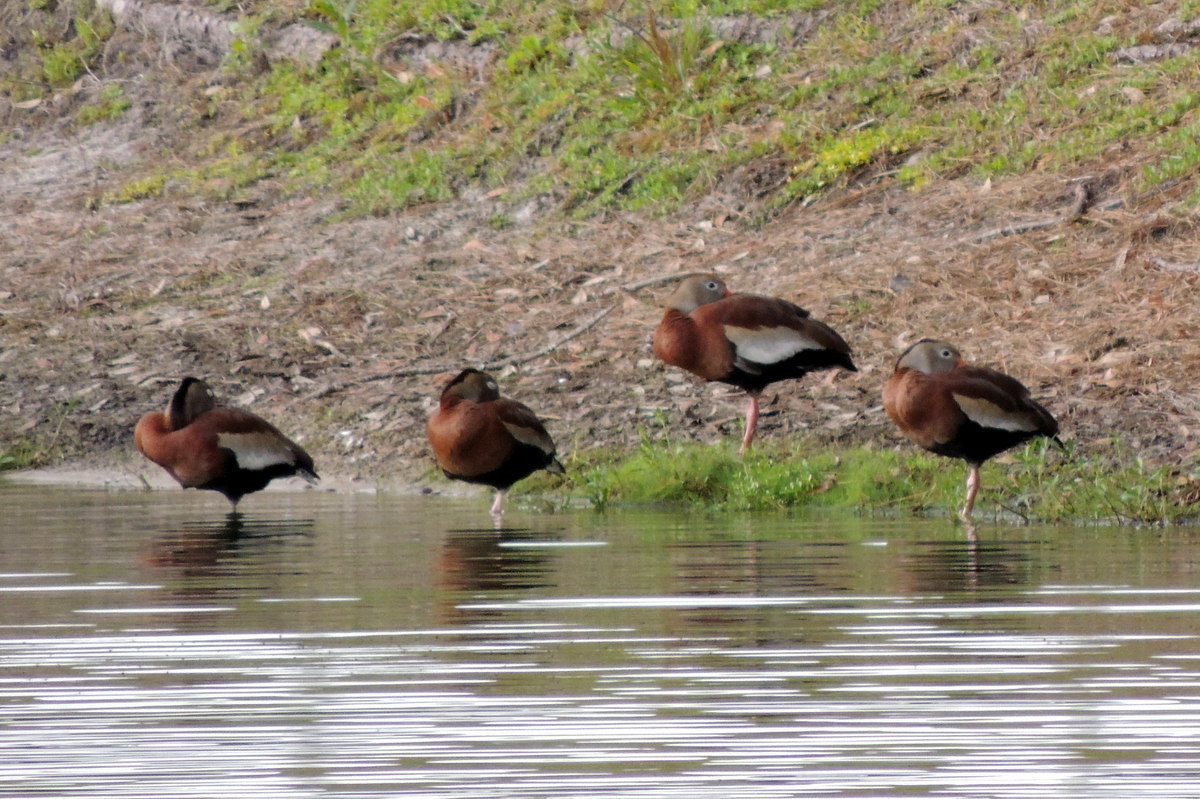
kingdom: Animalia
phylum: Chordata
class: Aves
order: Anseriformes
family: Anatidae
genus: Dendrocygna
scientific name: Dendrocygna autumnalis
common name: Black-bellied whistling duck
